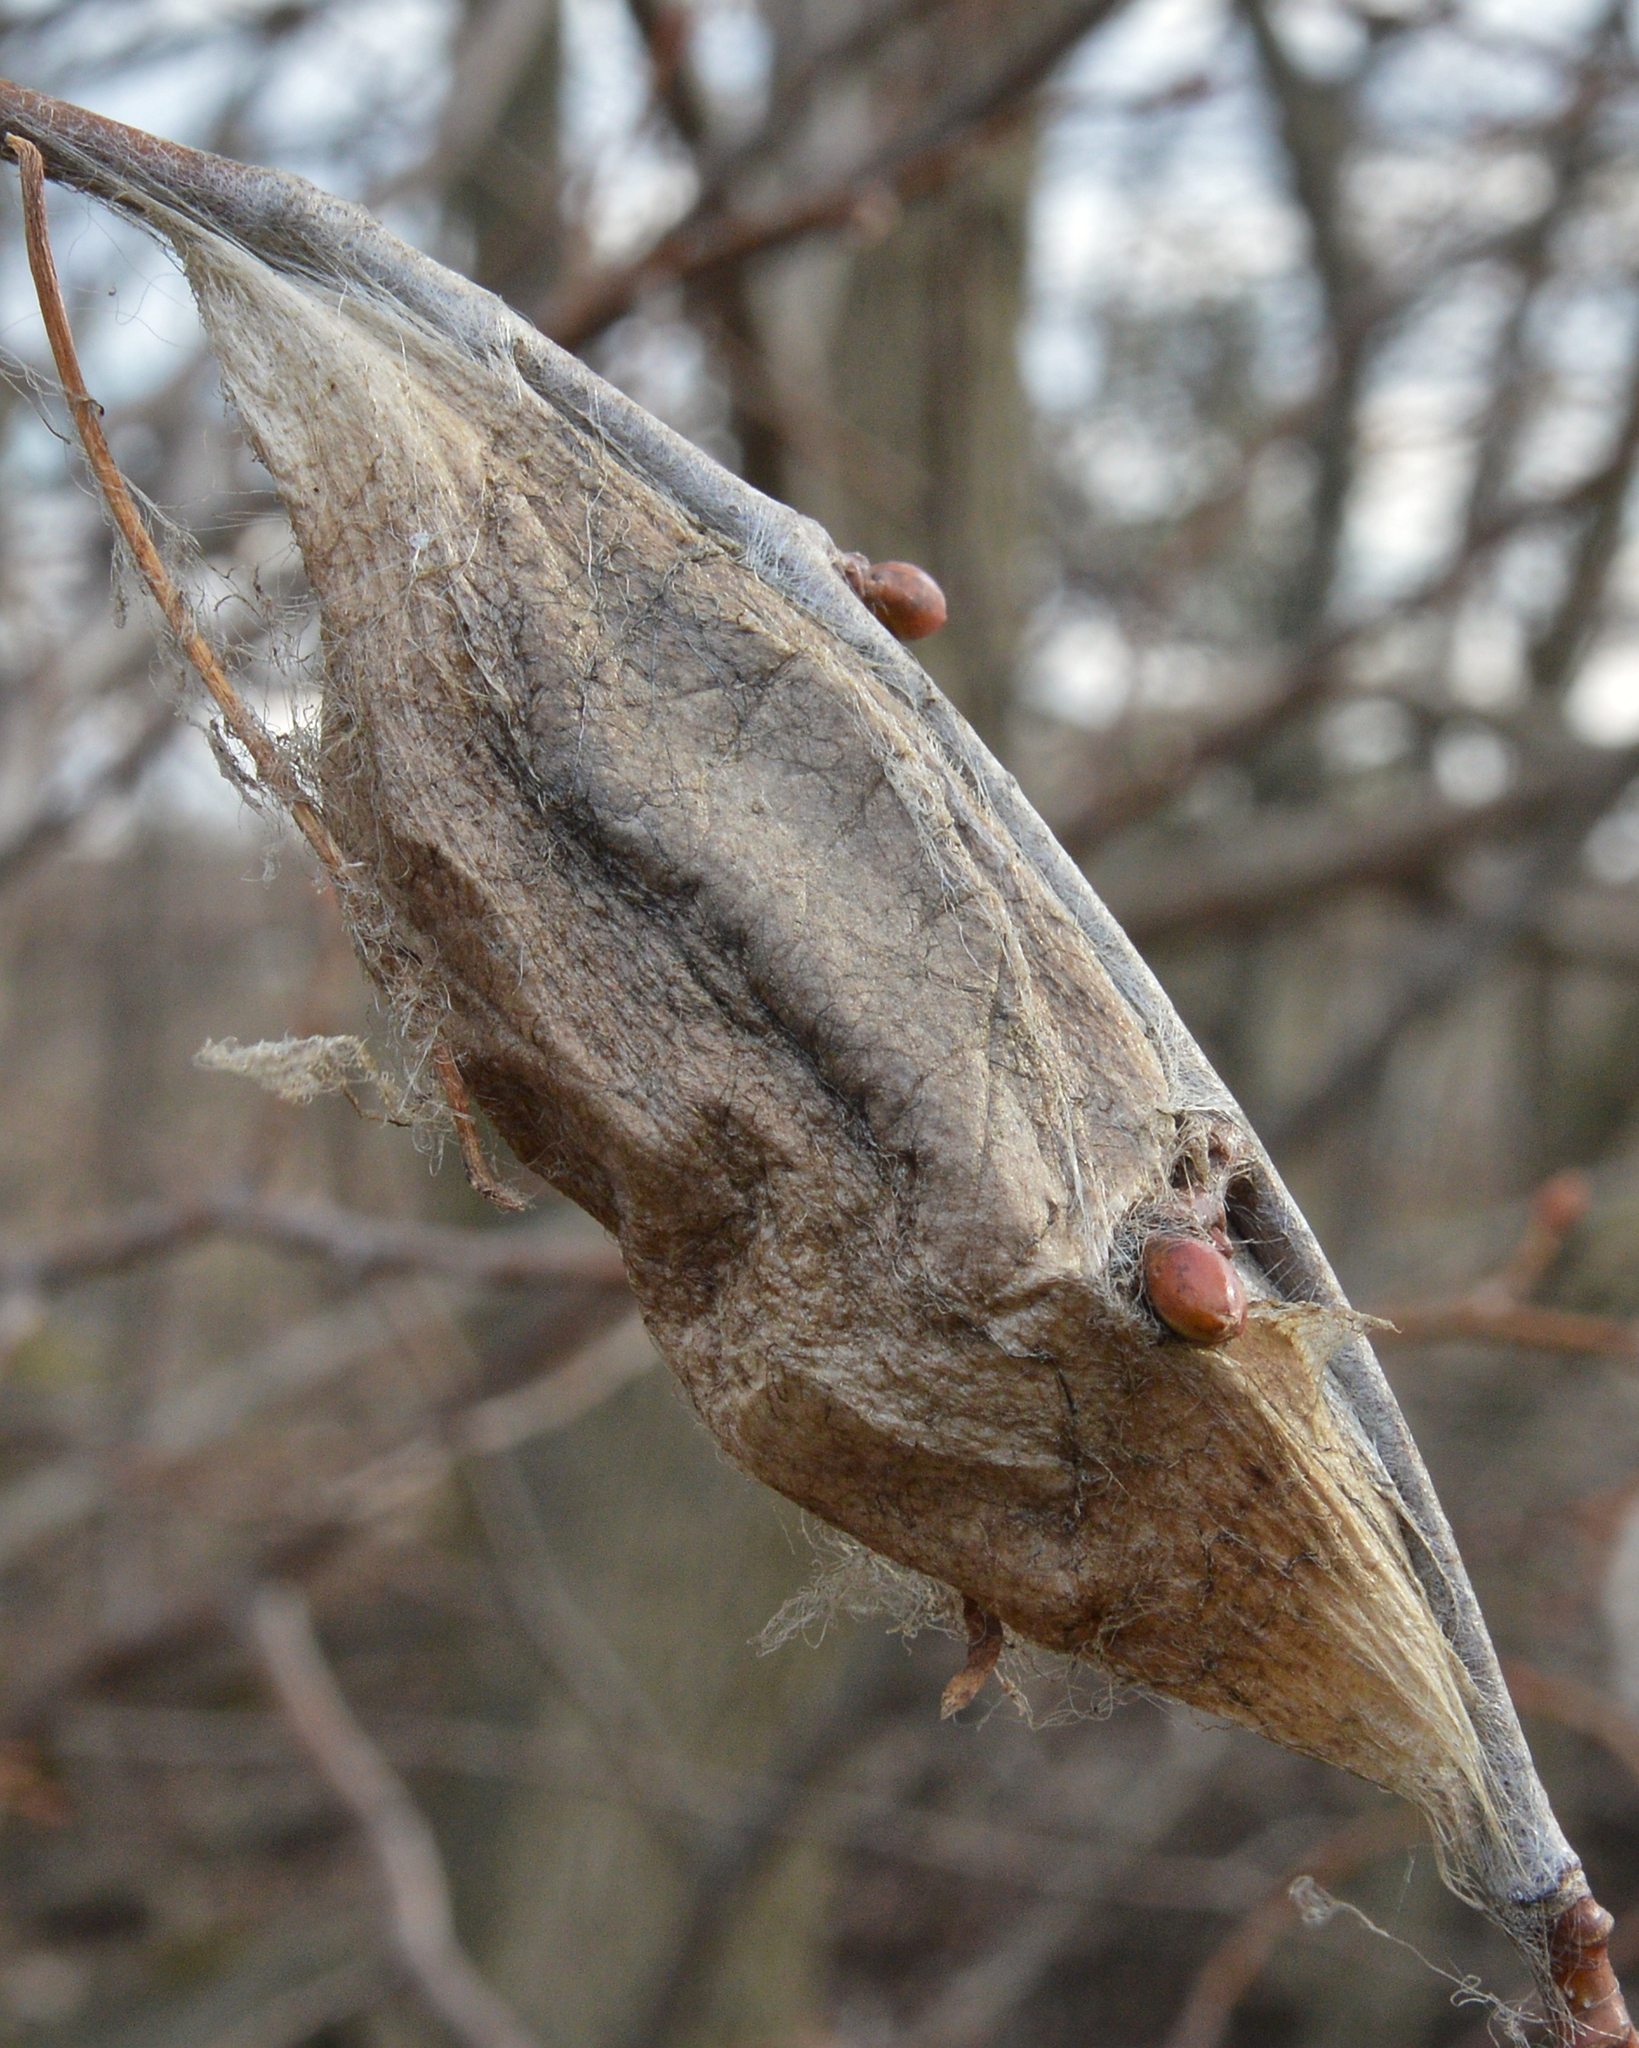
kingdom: Animalia
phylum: Arthropoda
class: Insecta
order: Lepidoptera
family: Saturniidae
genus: Hyalophora
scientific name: Hyalophora cecropia
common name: Cecropia silkmoth
